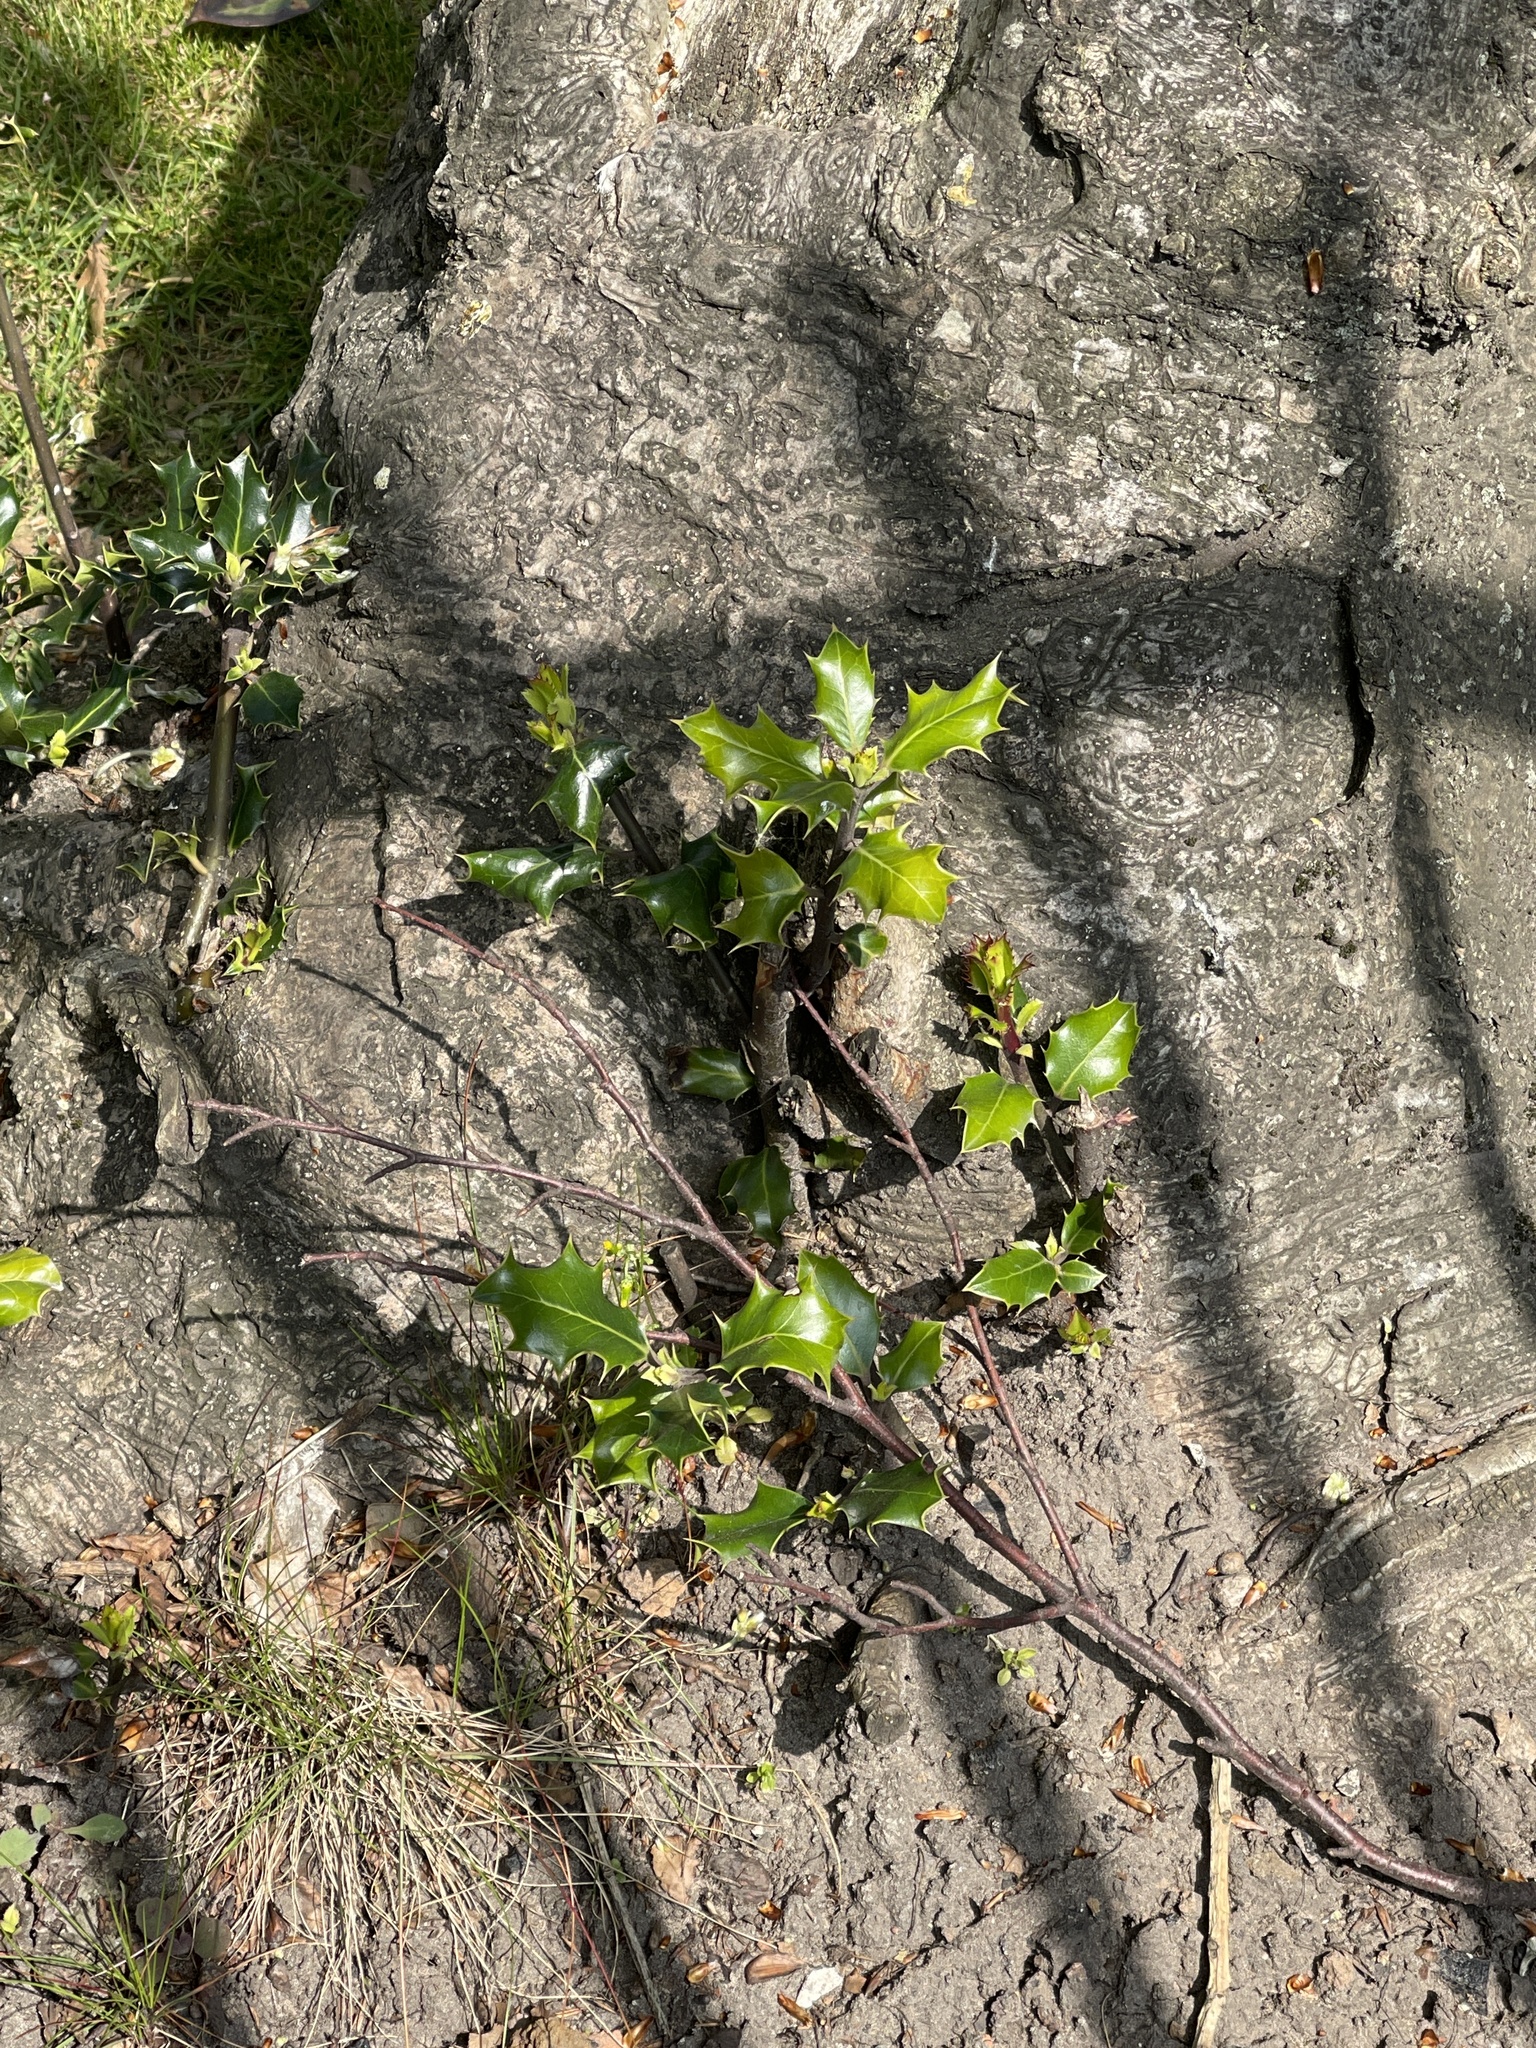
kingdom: Plantae
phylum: Tracheophyta
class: Magnoliopsida
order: Aquifoliales
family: Aquifoliaceae
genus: Ilex
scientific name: Ilex aquifolium
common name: English holly
